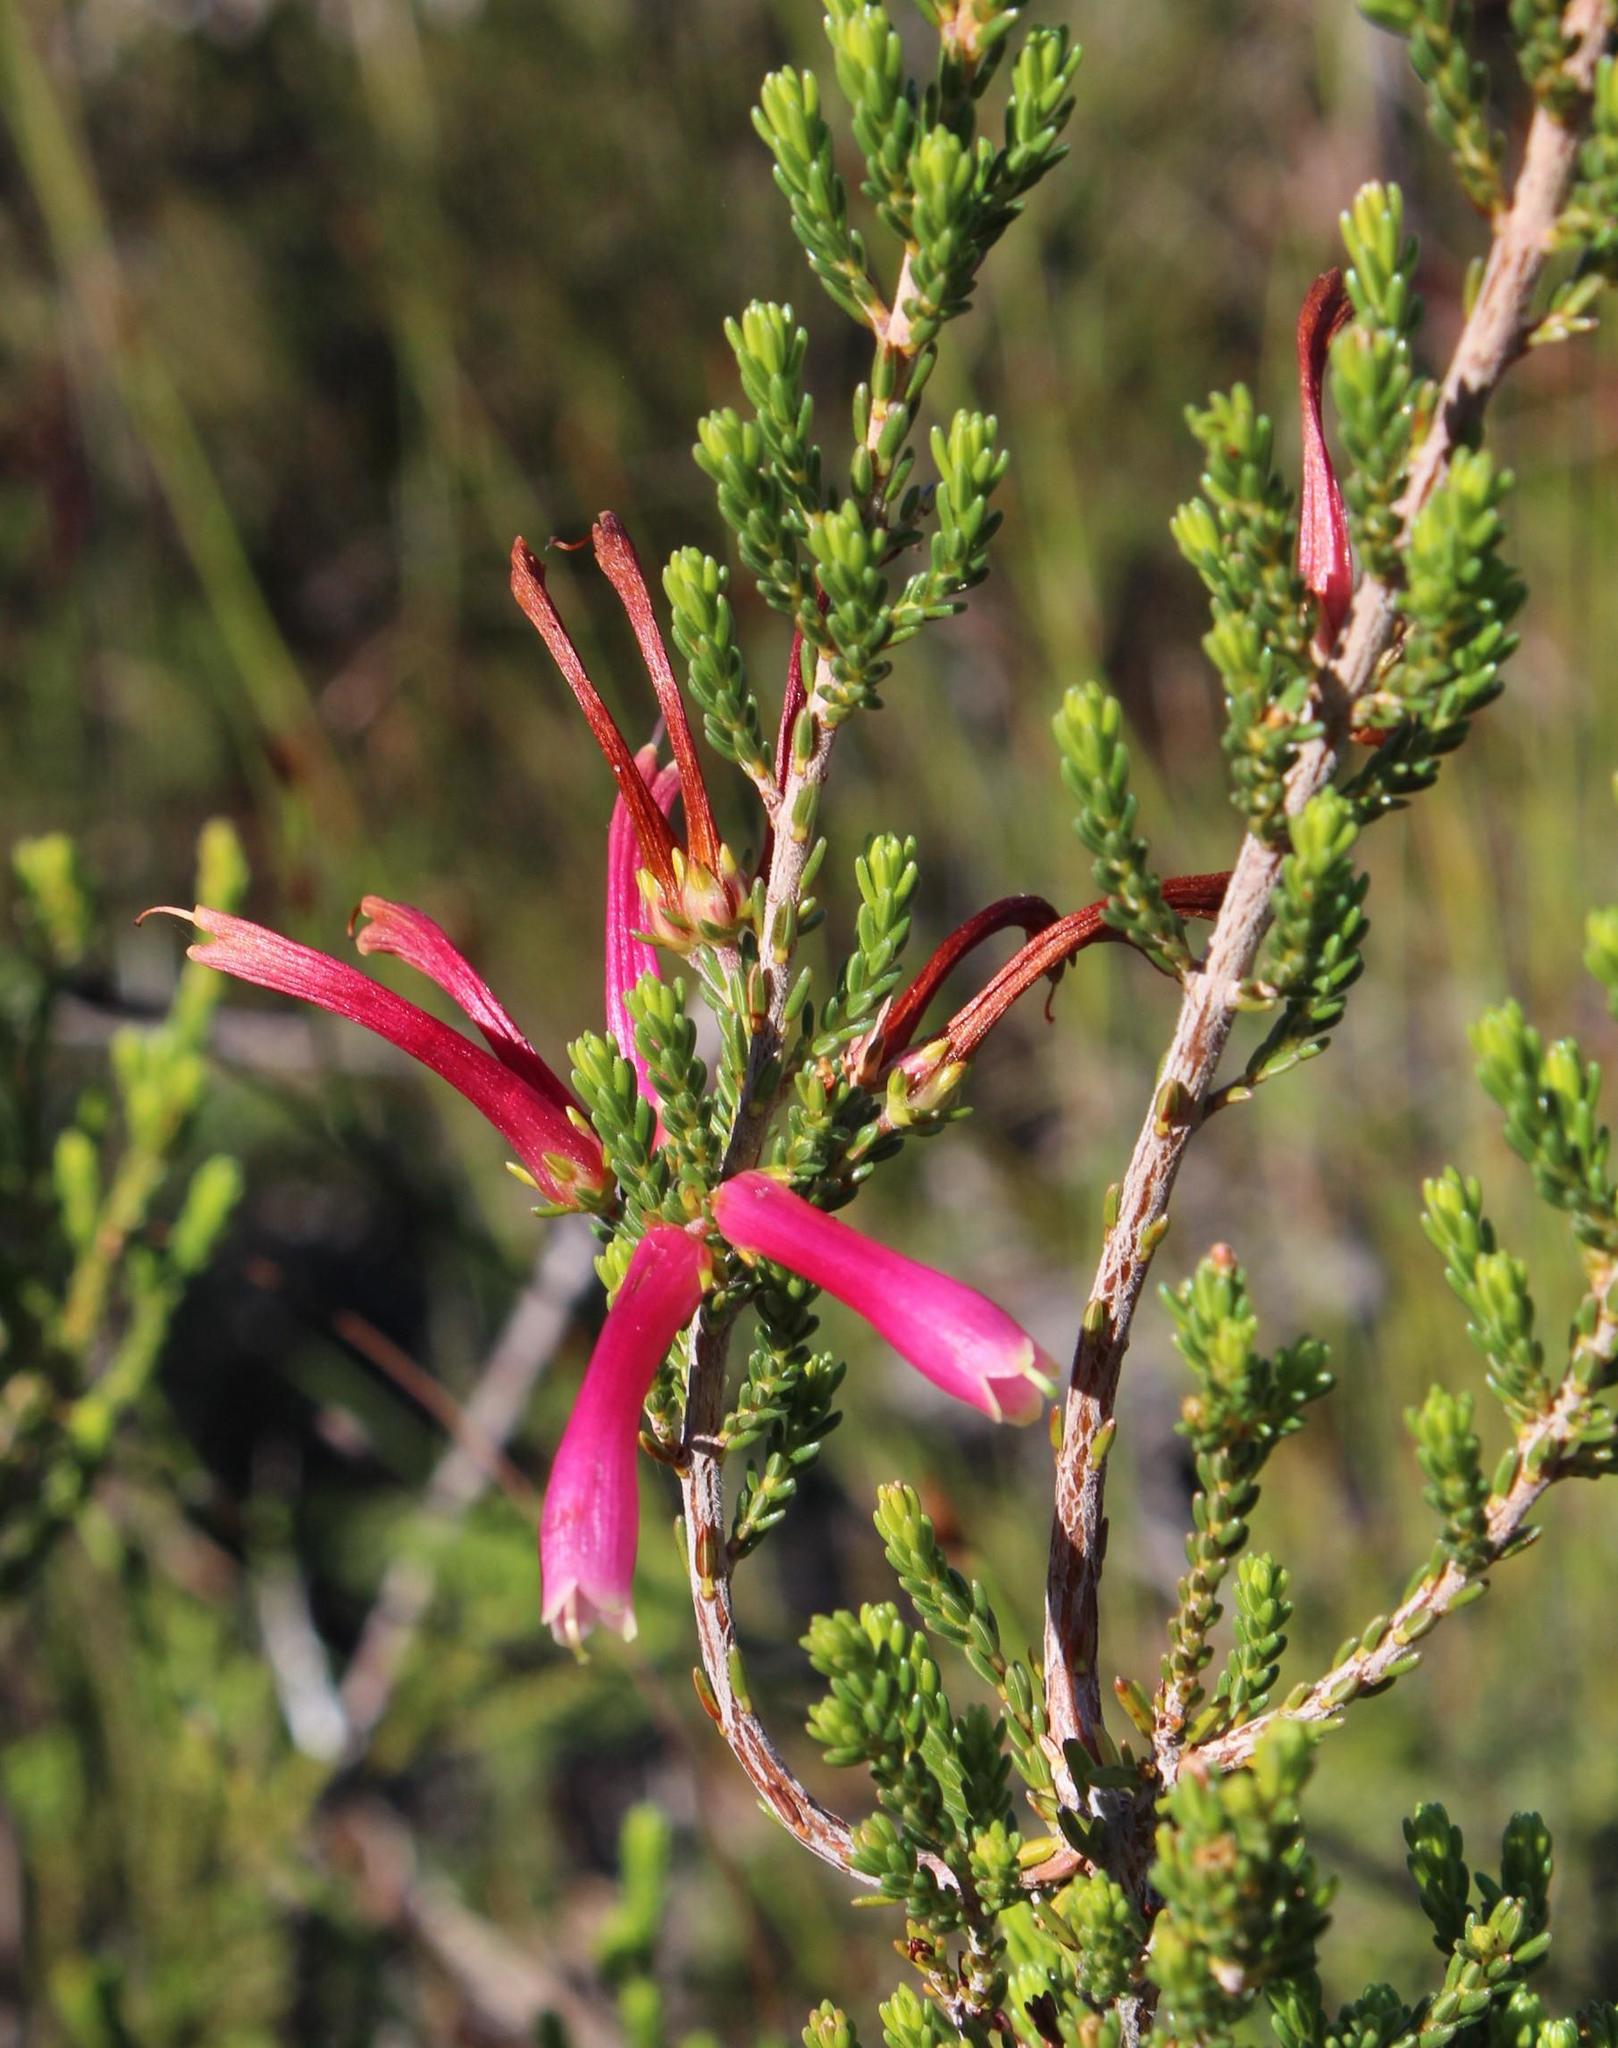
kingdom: Plantae
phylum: Tracheophyta
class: Magnoliopsida
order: Ericales
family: Ericaceae
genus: Erica
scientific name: Erica discolor
